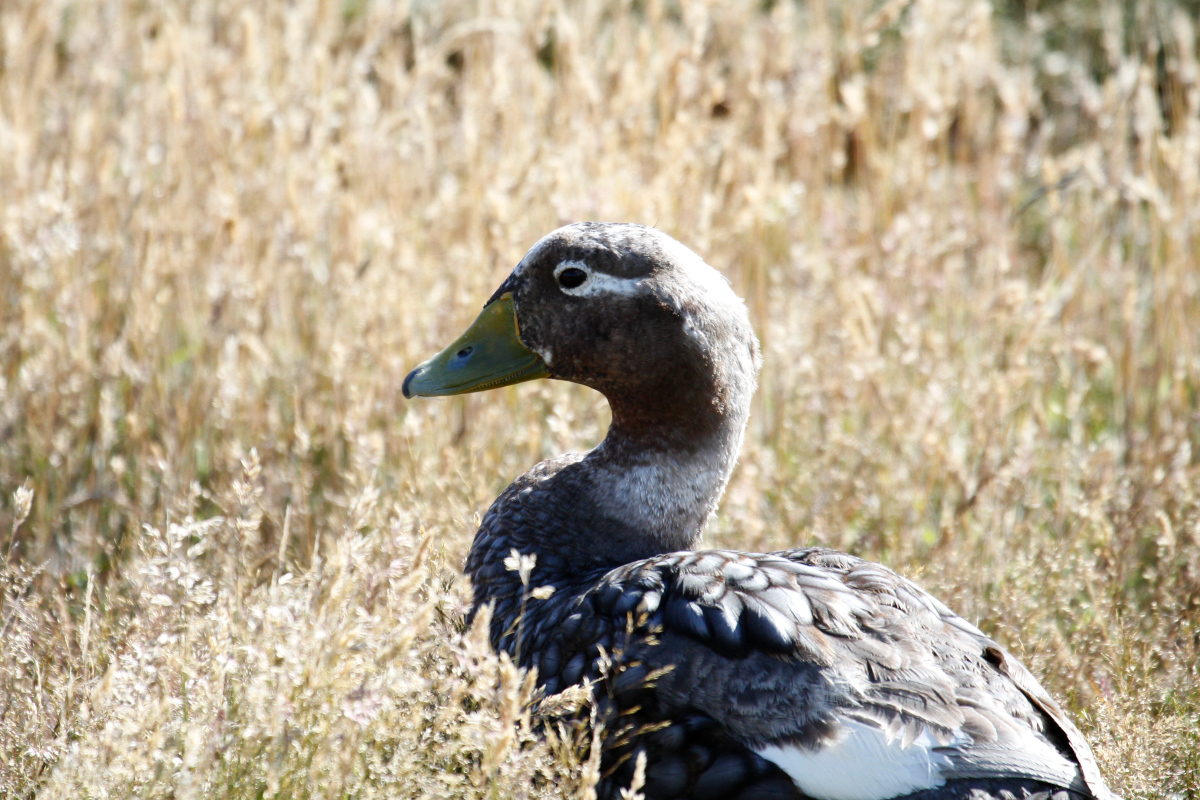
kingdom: Animalia
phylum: Chordata
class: Aves
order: Anseriformes
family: Anatidae
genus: Tachyeres
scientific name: Tachyeres brachypterus
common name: Falkland steamer duck
